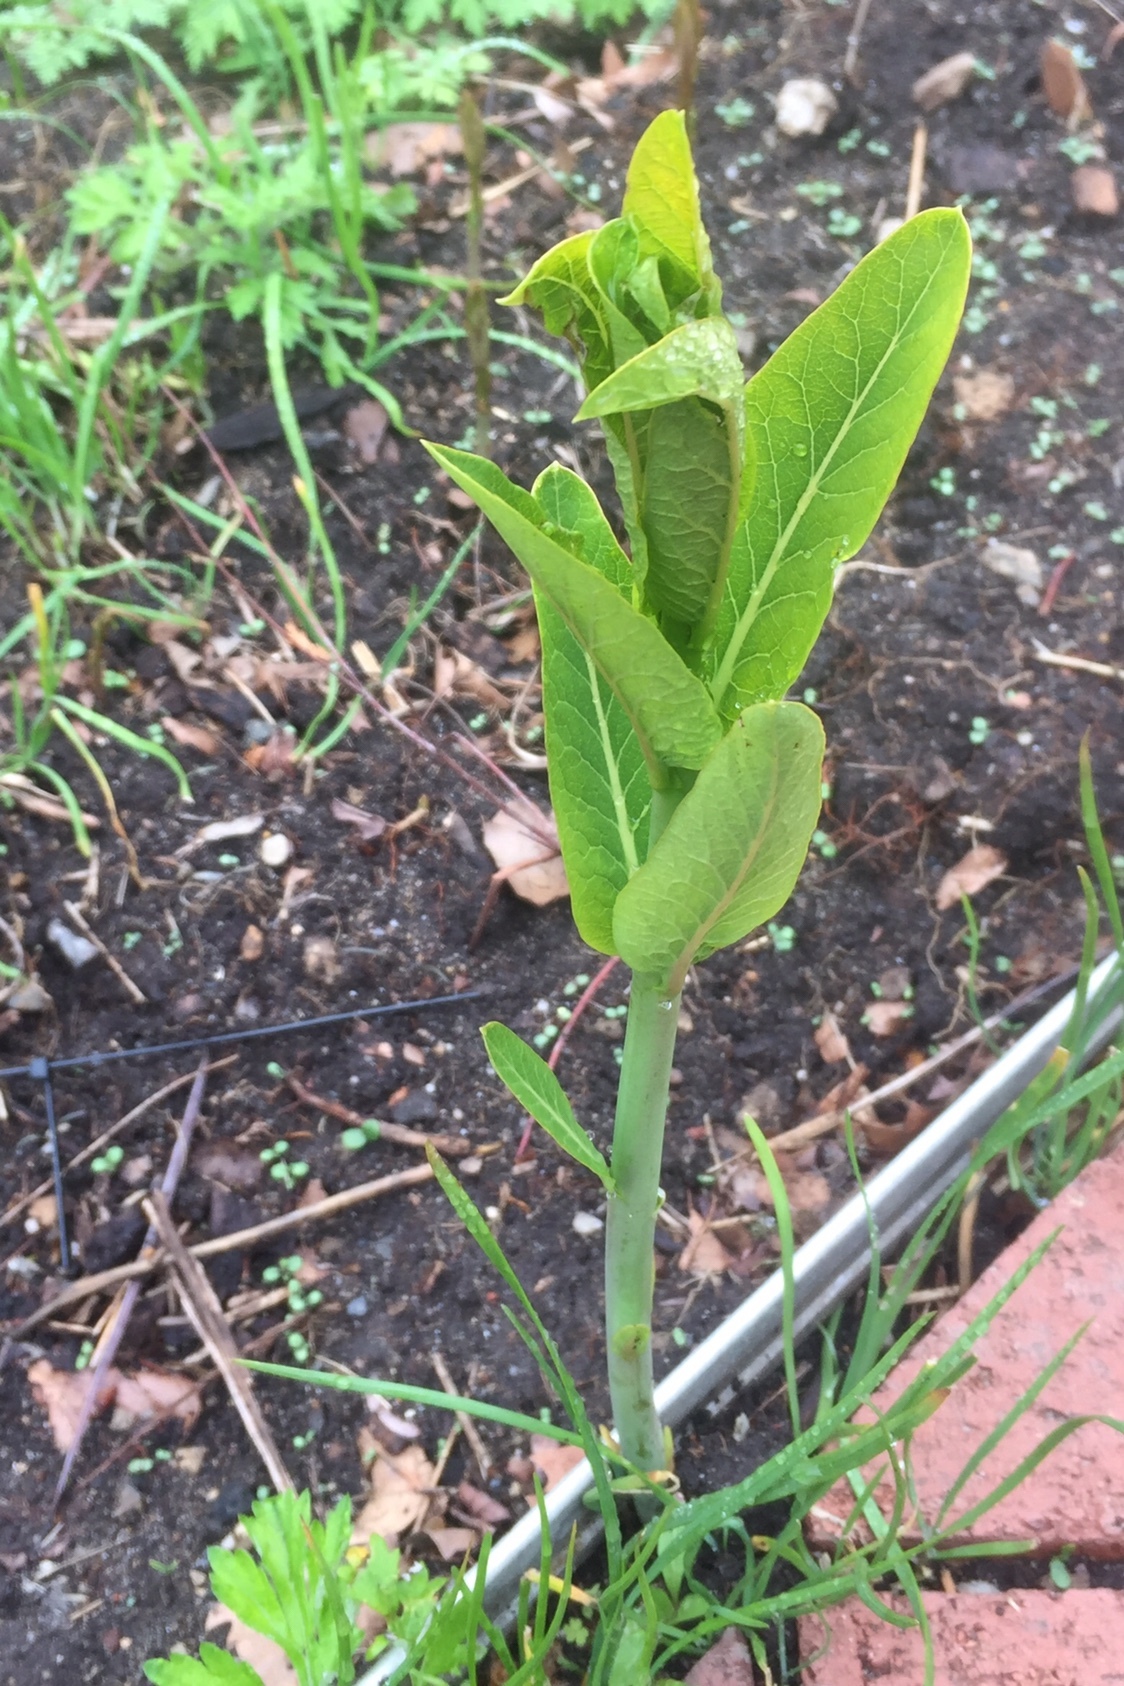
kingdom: Plantae
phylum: Tracheophyta
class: Magnoliopsida
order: Gentianales
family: Apocynaceae
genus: Asclepias
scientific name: Asclepias syriaca
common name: Common milkweed
